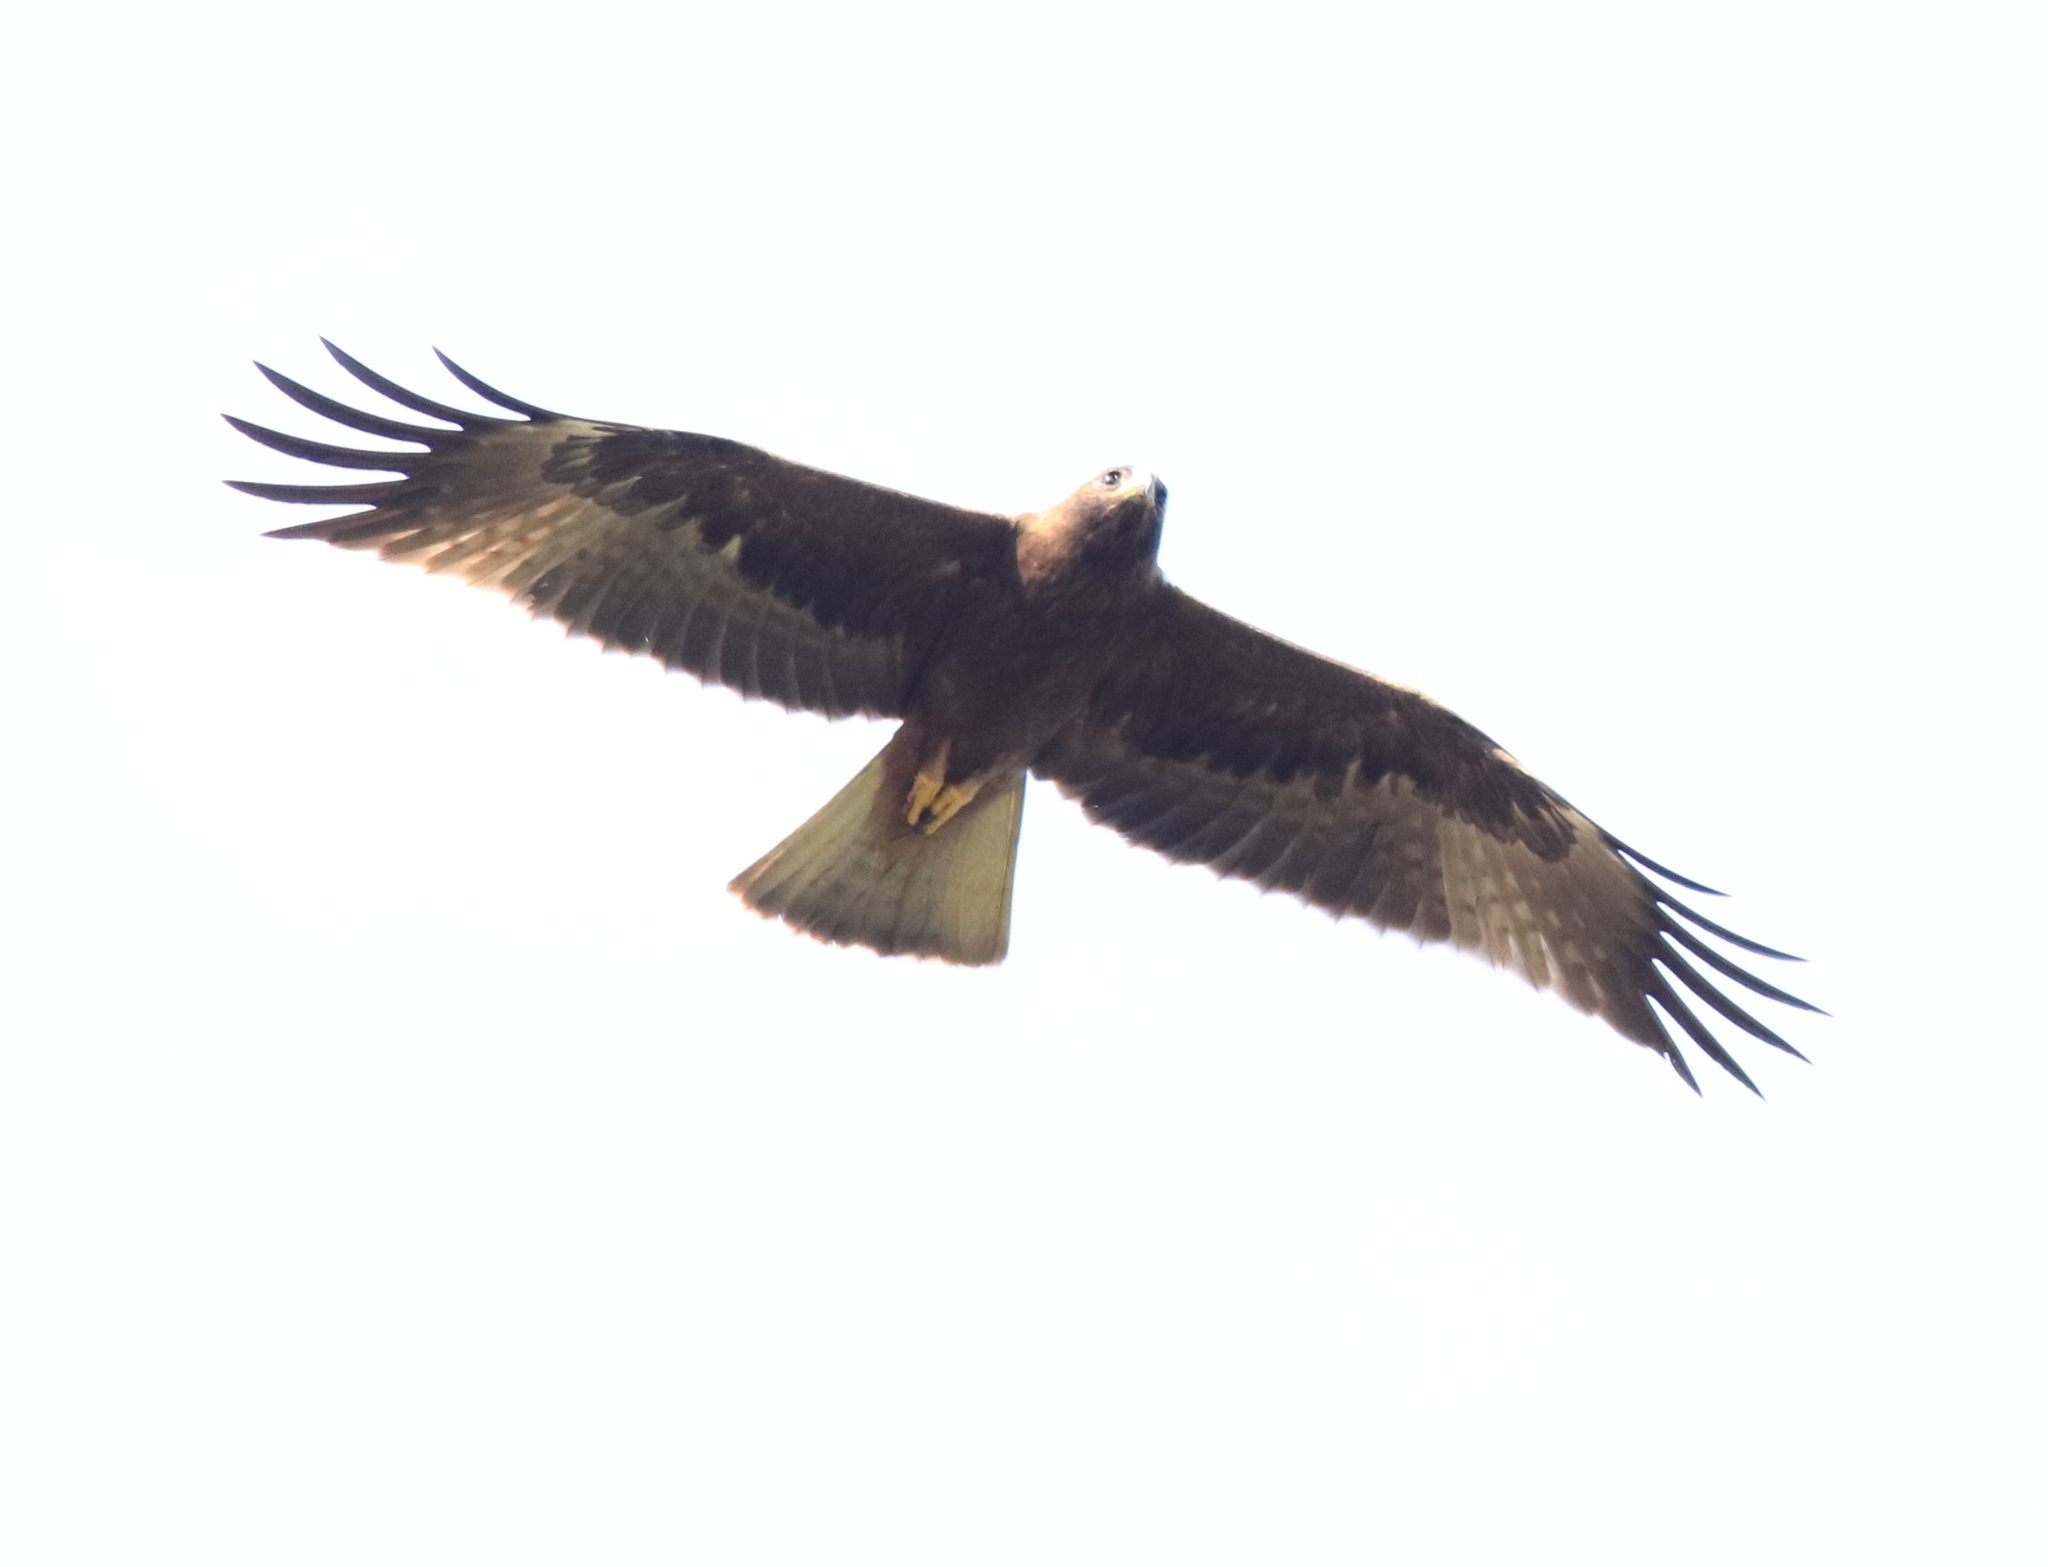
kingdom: Animalia
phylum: Chordata
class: Aves
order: Accipitriformes
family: Accipitridae
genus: Hieraaetus
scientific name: Hieraaetus pennatus
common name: Booted eagle
